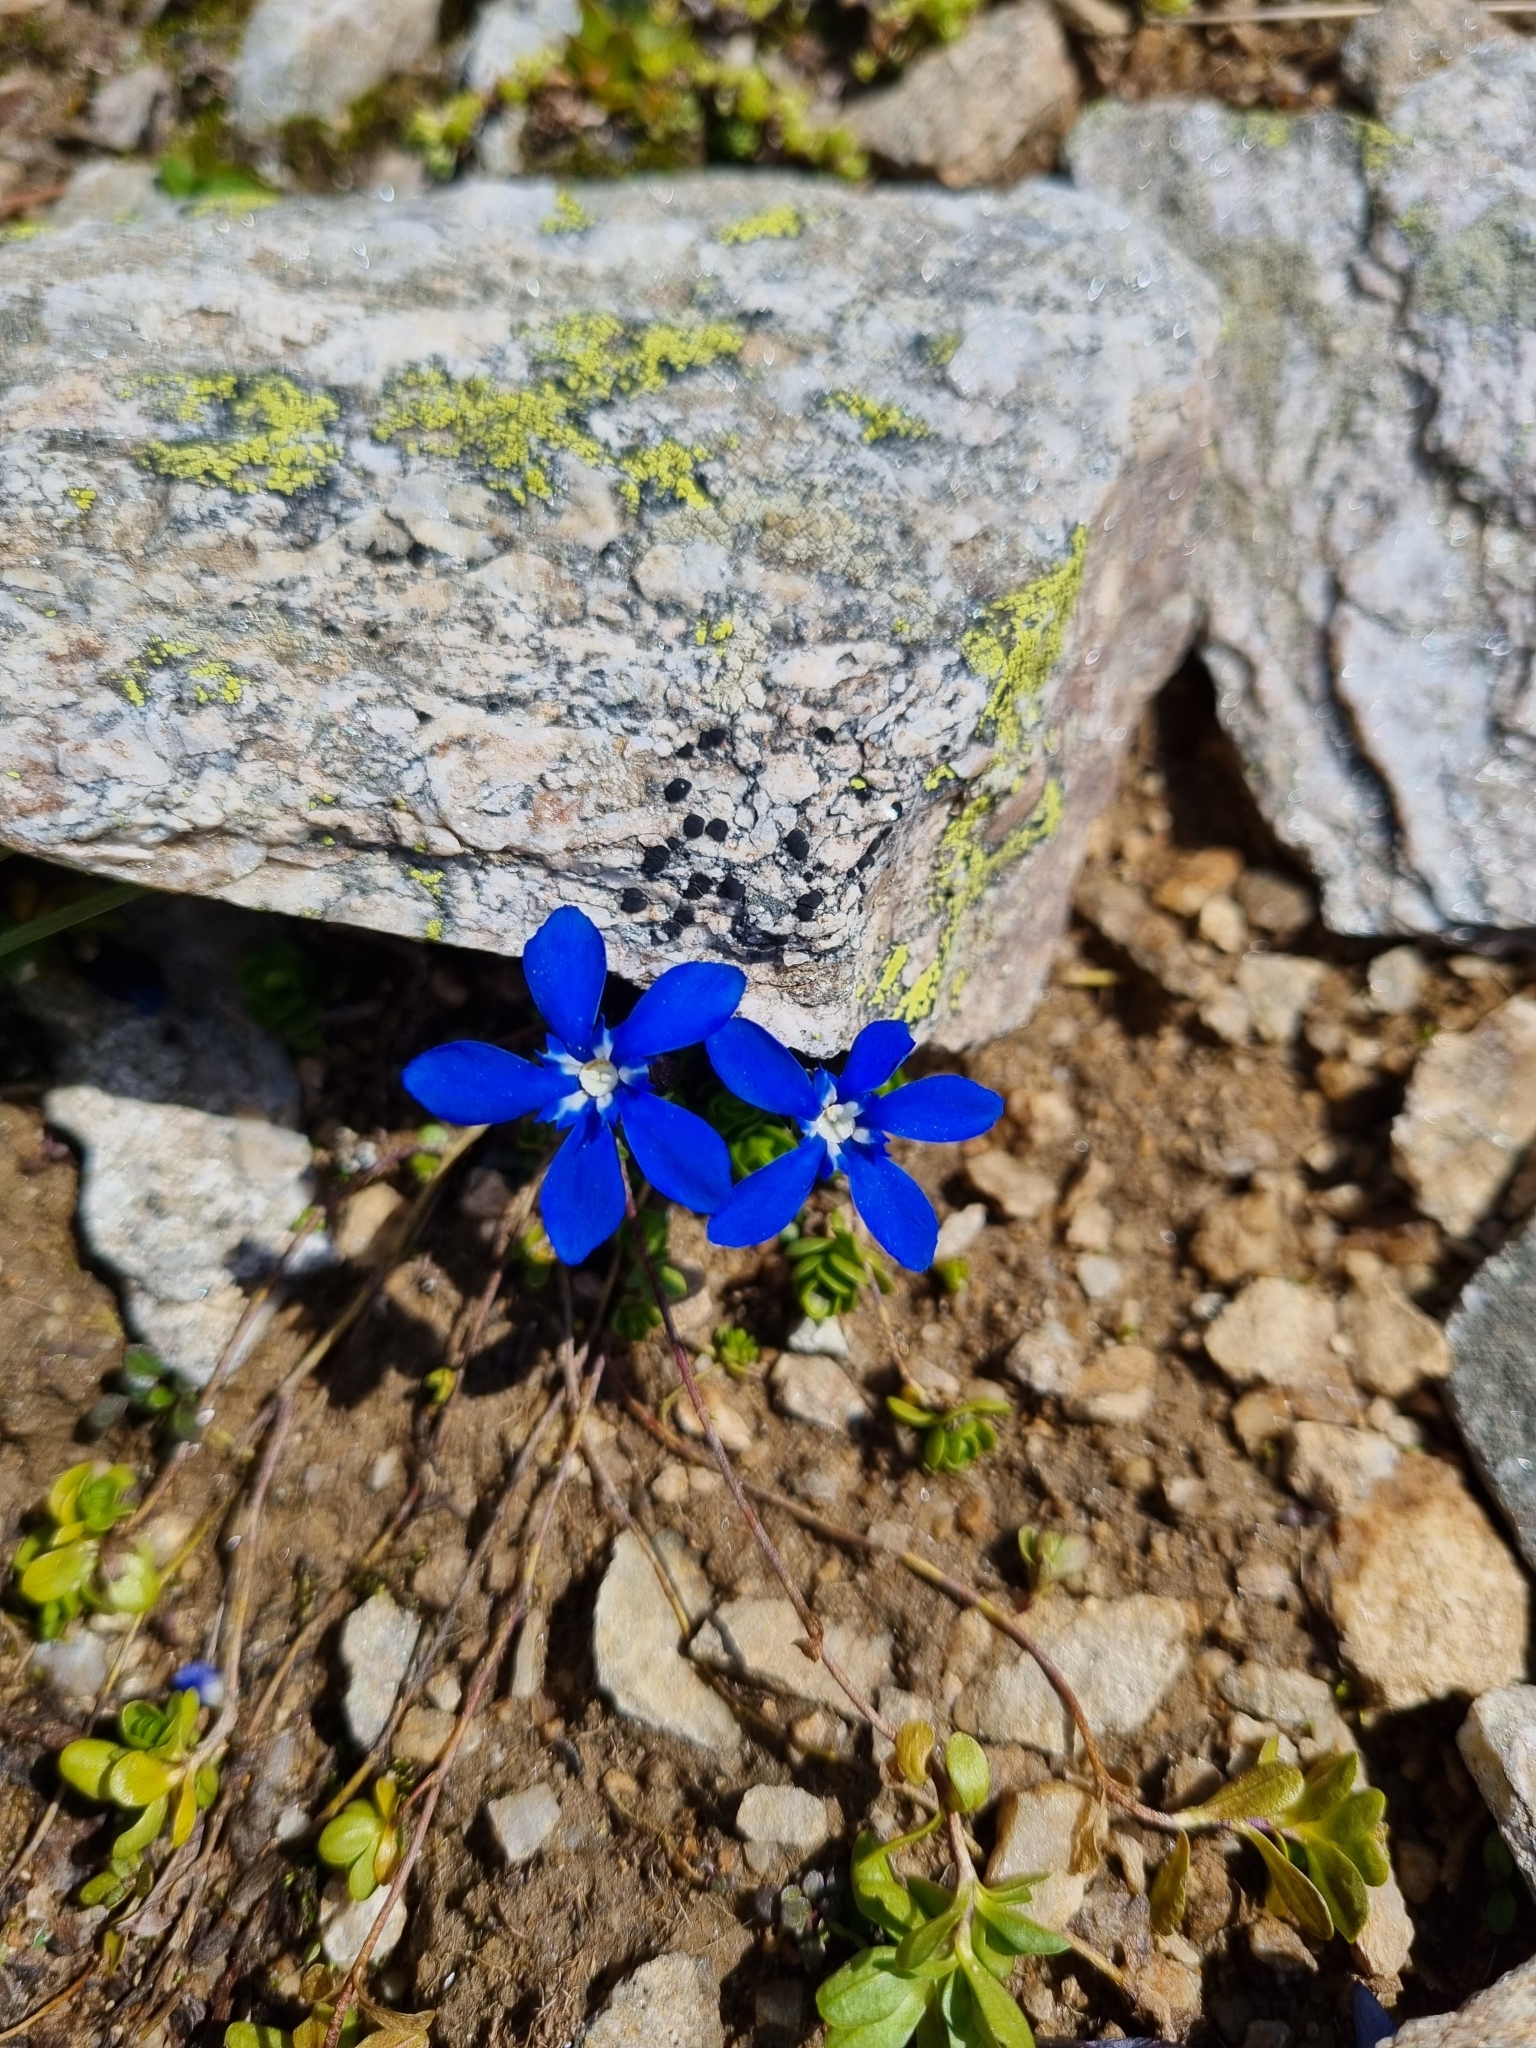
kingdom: Plantae
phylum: Tracheophyta
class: Magnoliopsida
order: Gentianales
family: Gentianaceae
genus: Gentiana
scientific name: Gentiana bavarica
